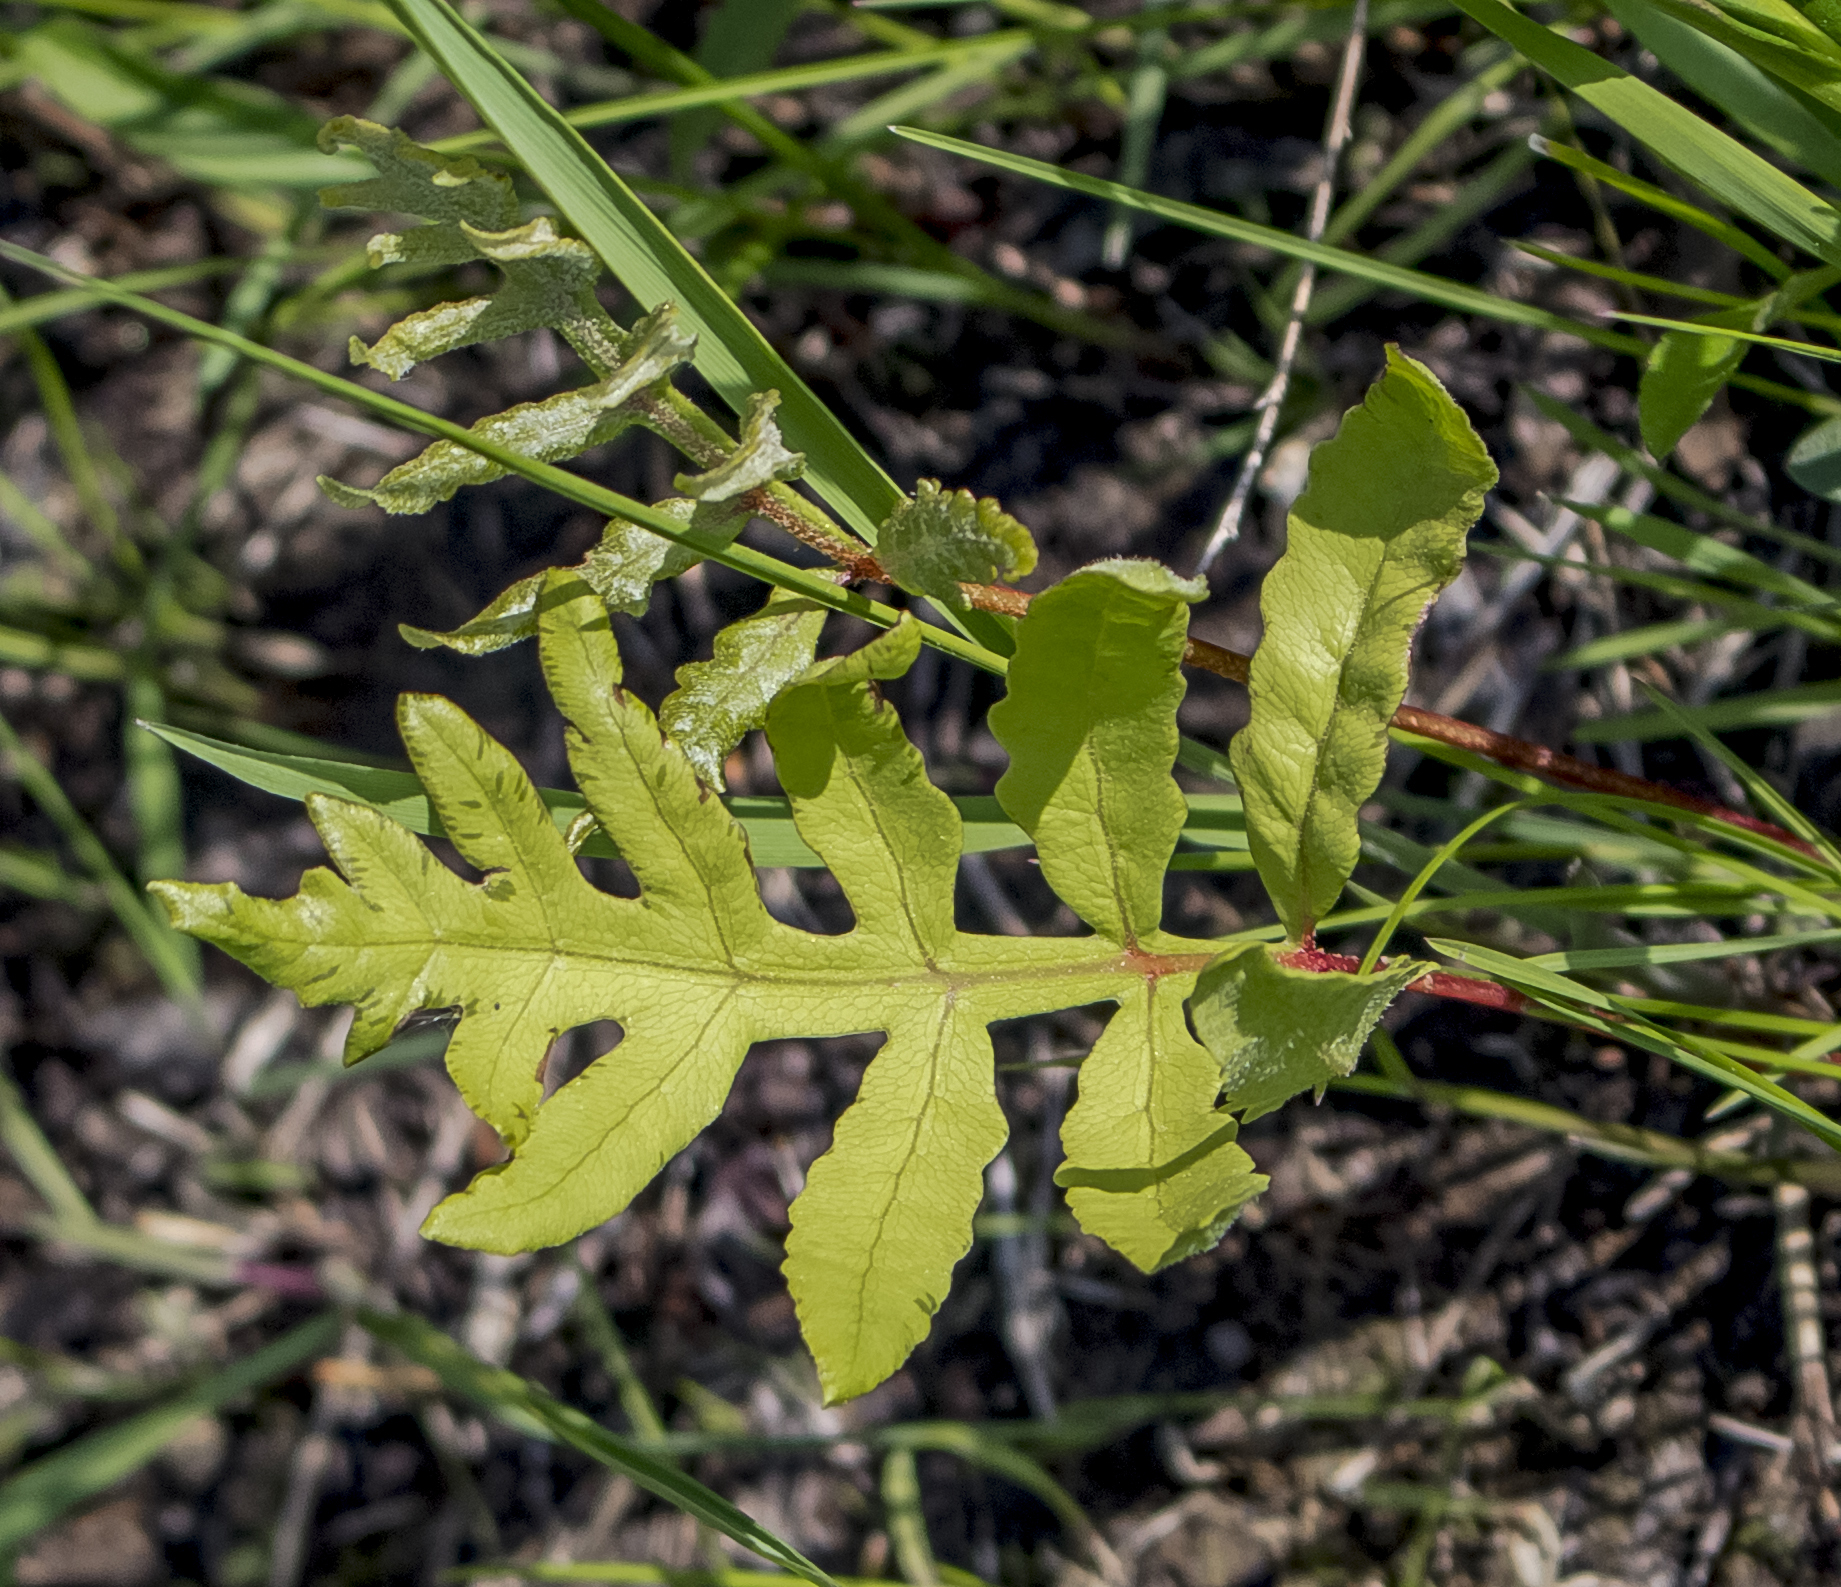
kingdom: Plantae
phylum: Tracheophyta
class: Polypodiopsida
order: Polypodiales
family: Onocleaceae
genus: Onoclea
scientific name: Onoclea sensibilis
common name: Sensitive fern
